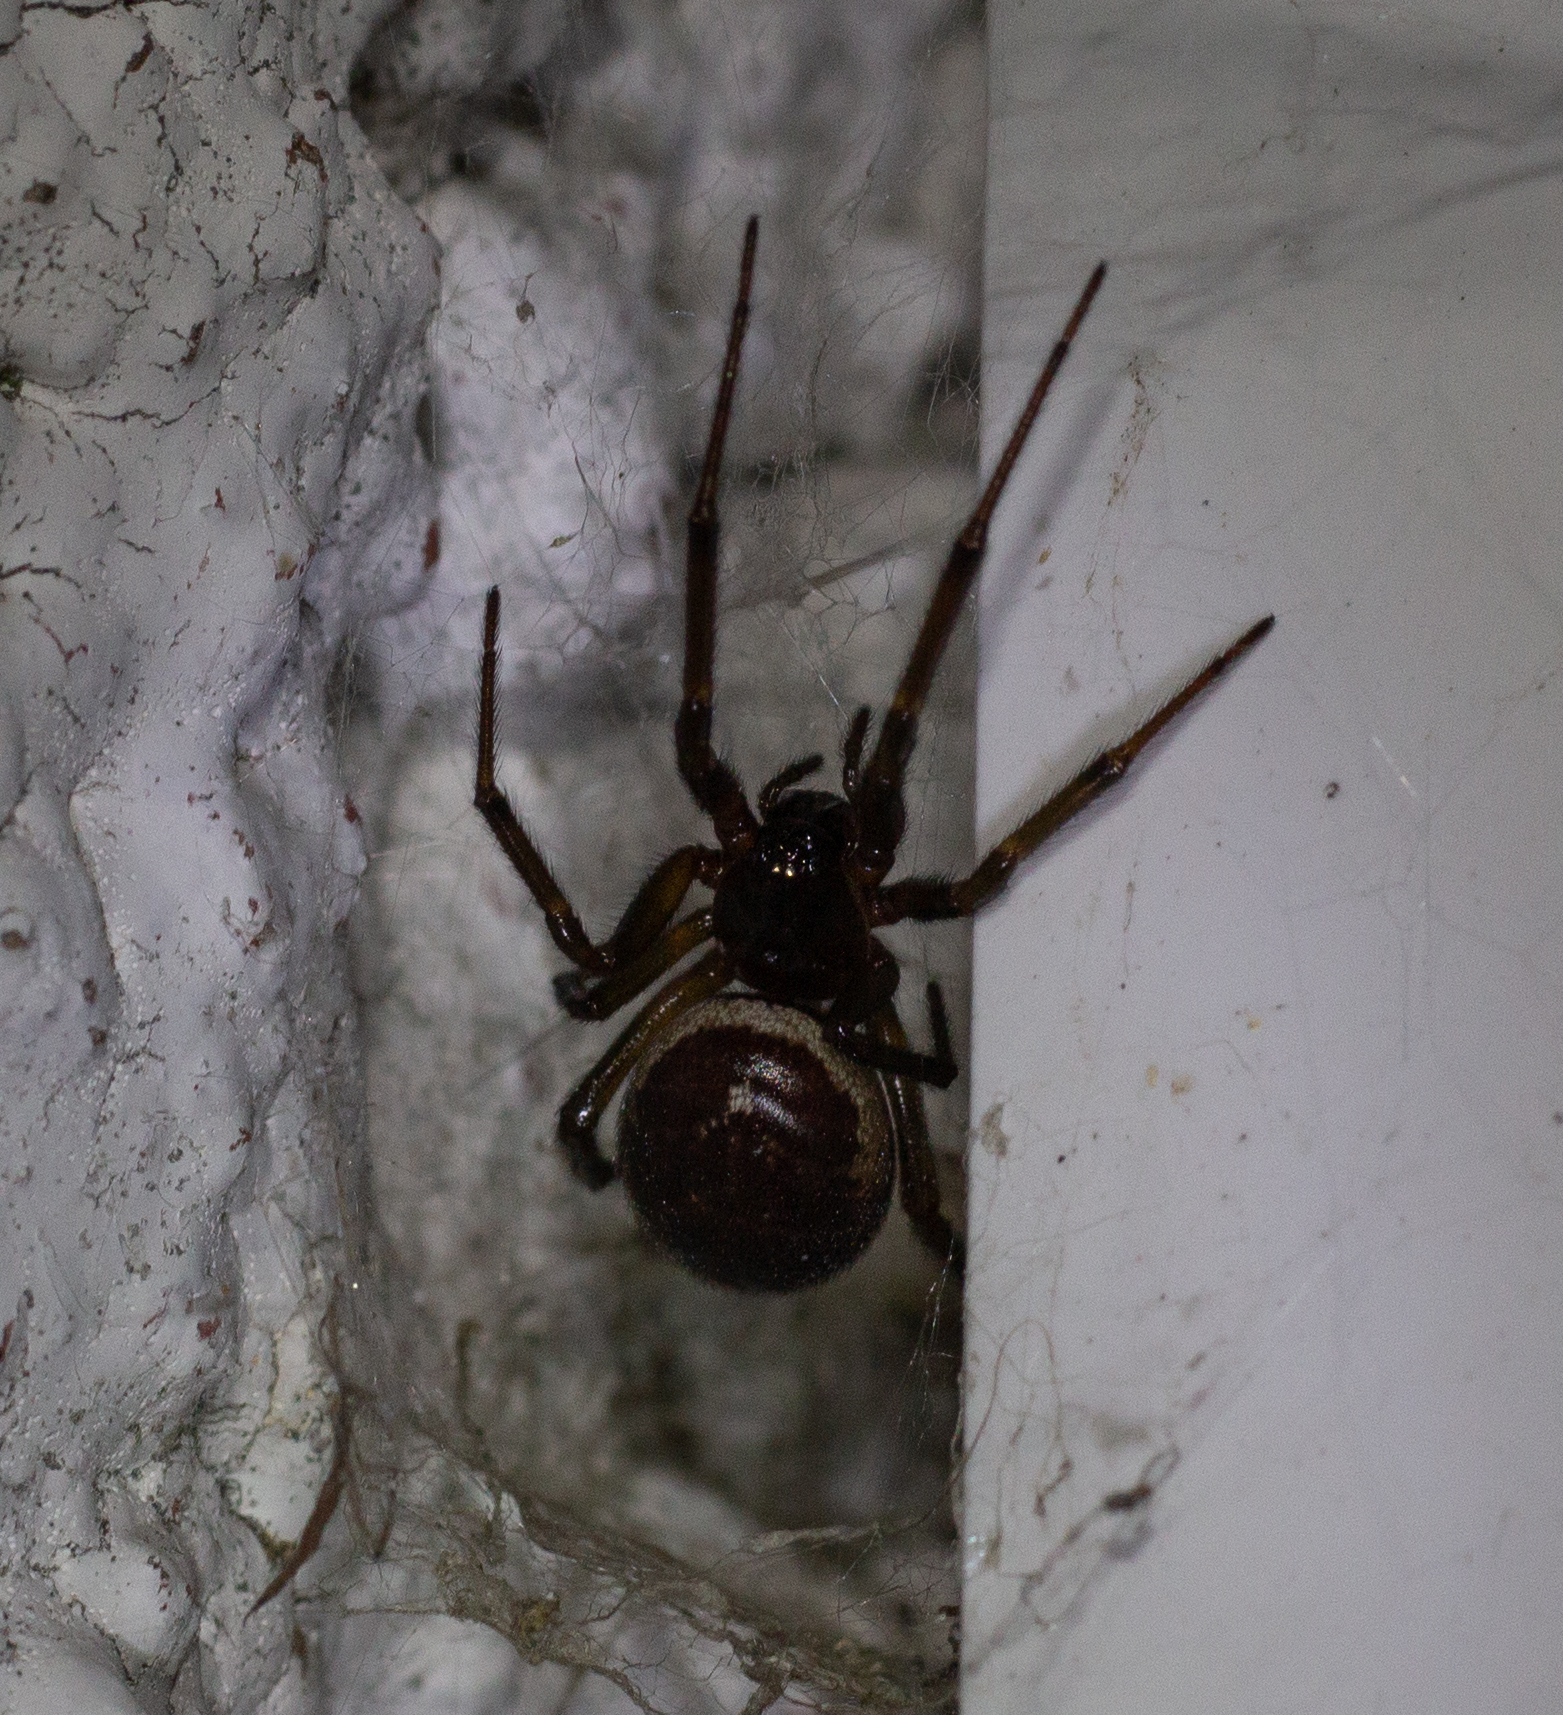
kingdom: Animalia
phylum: Arthropoda
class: Arachnida
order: Araneae
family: Theridiidae
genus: Steatoda
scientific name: Steatoda nobilis
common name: Cobweb weaver
